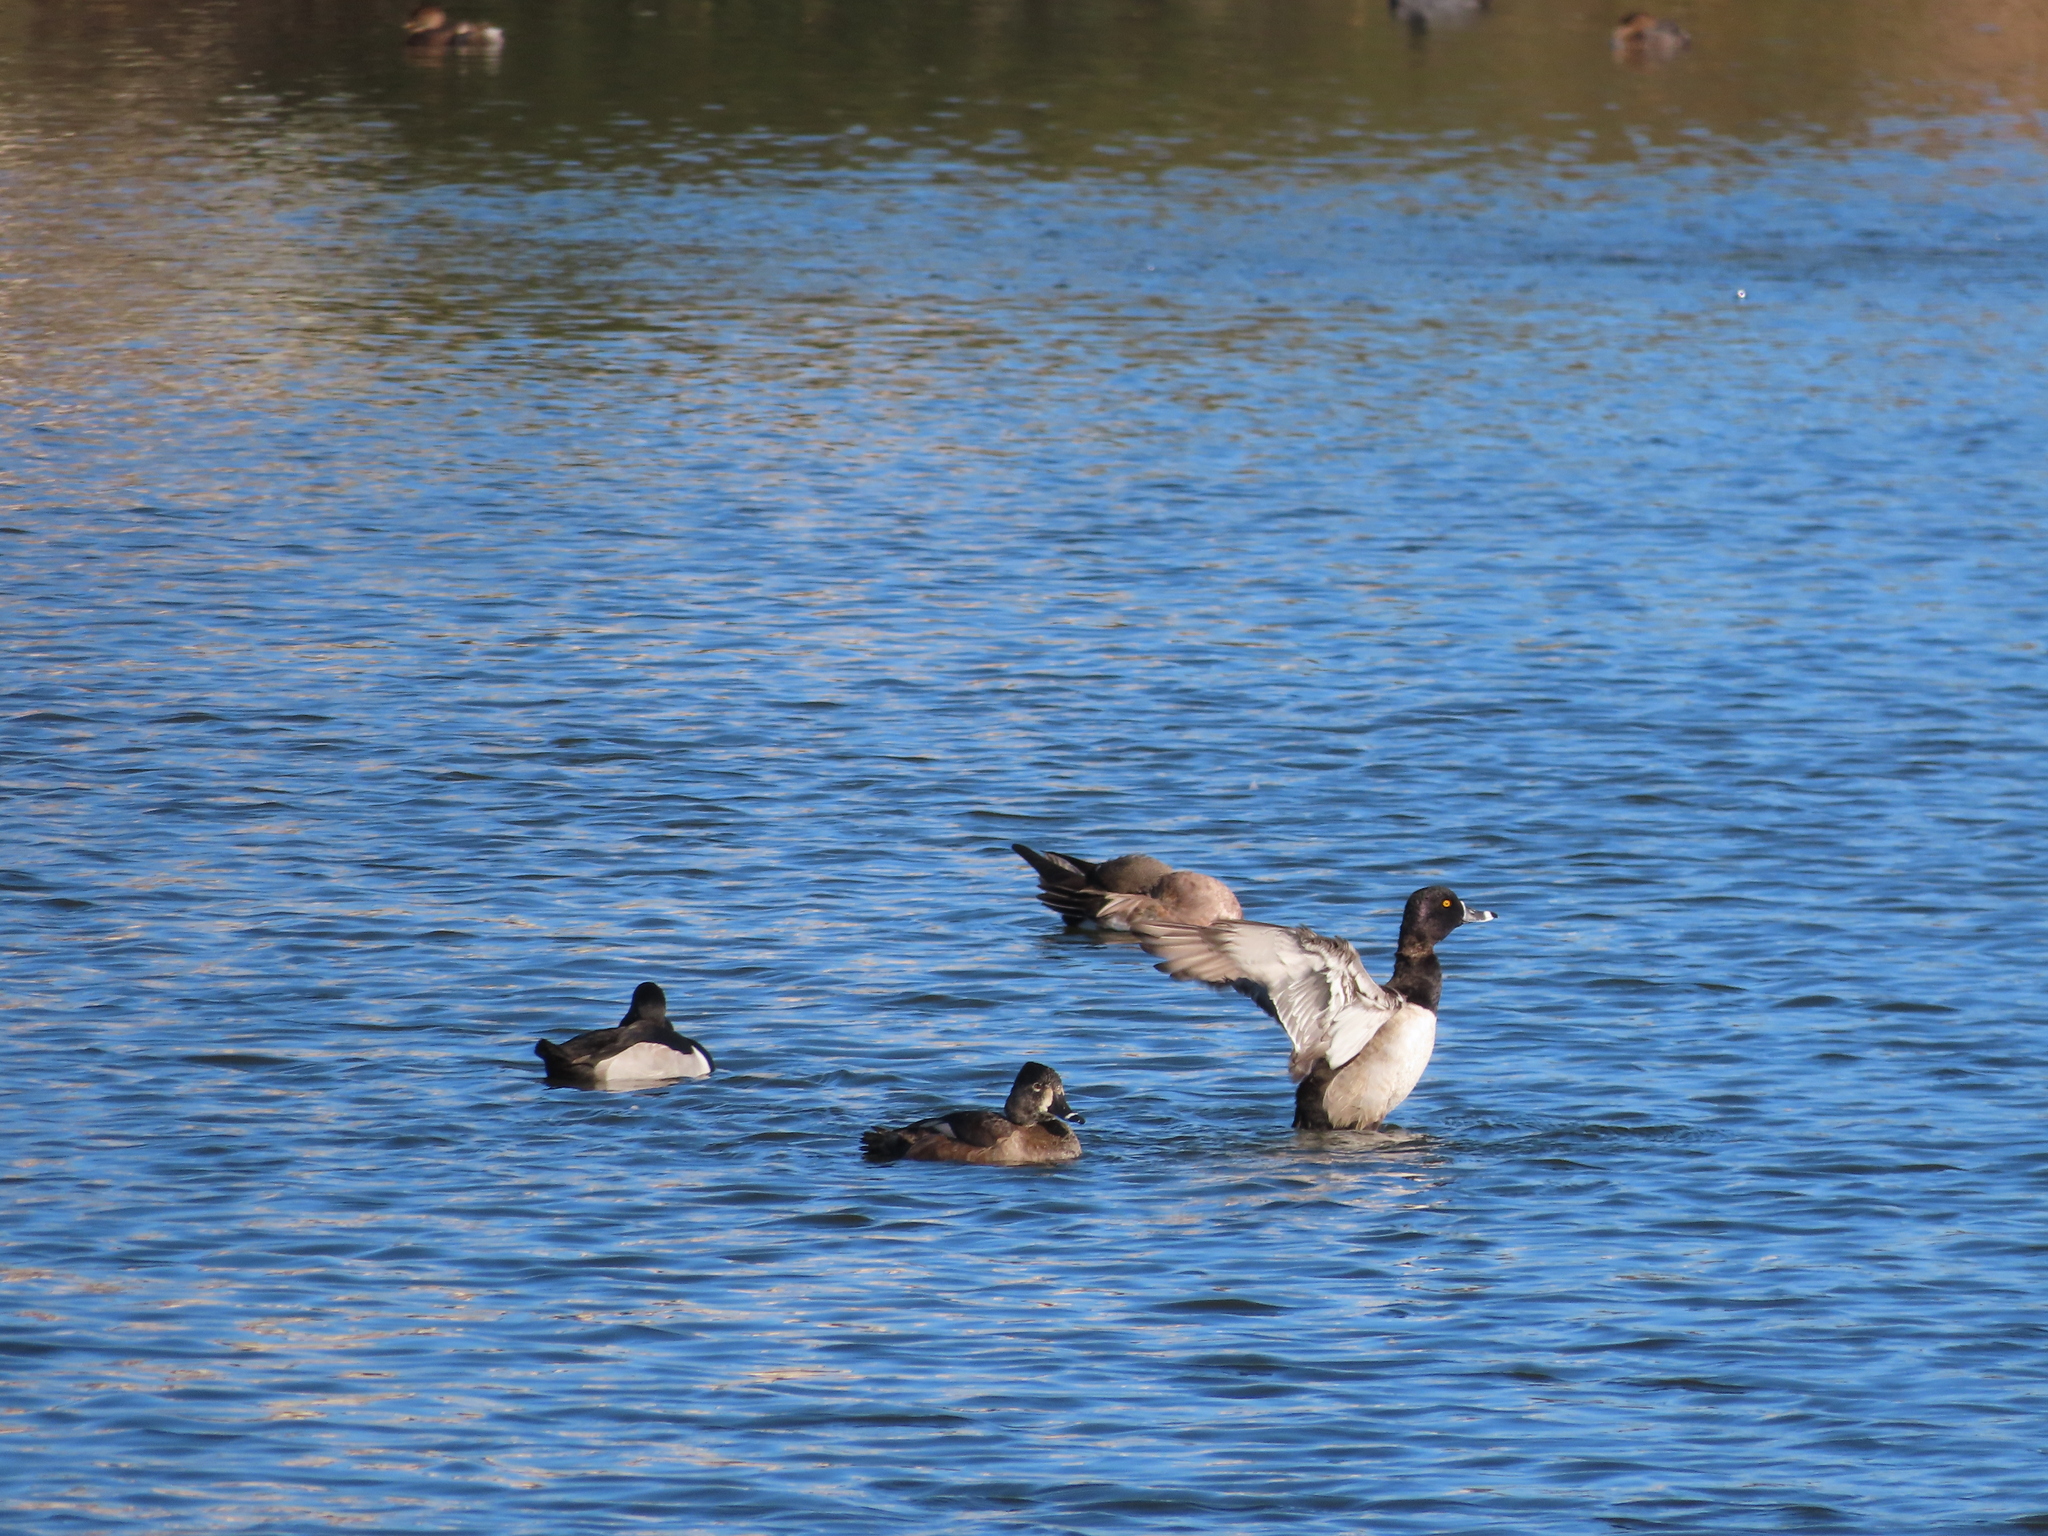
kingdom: Animalia
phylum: Chordata
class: Aves
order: Anseriformes
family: Anatidae
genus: Aythya
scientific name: Aythya collaris
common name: Ring-necked duck
